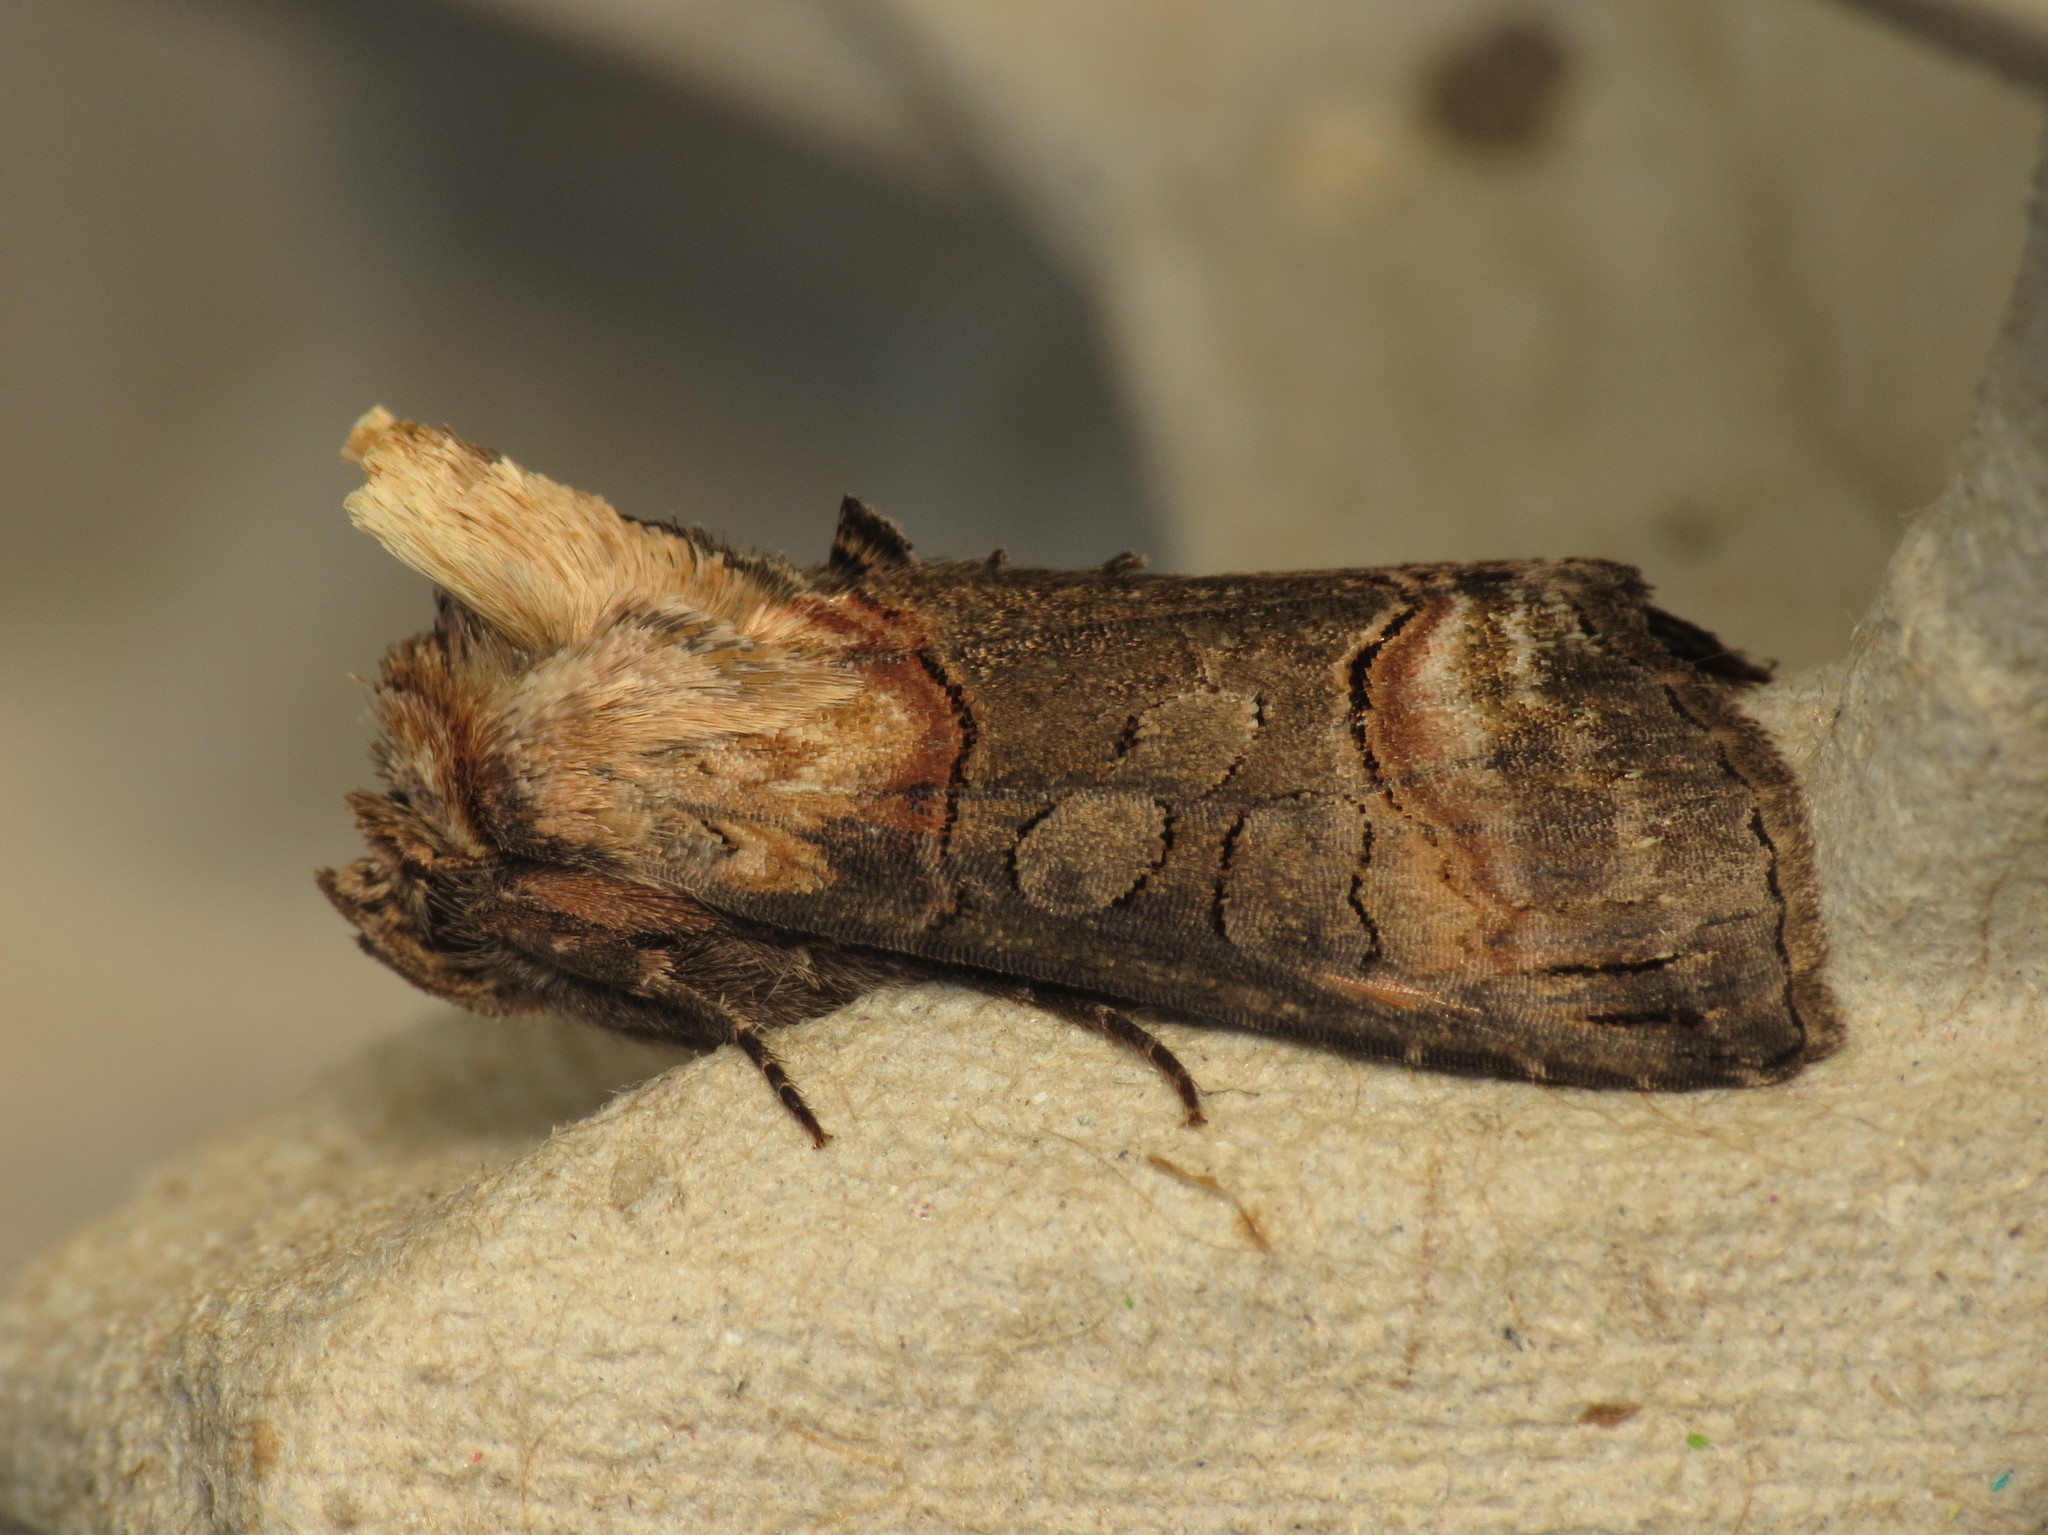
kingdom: Animalia
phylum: Arthropoda
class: Insecta
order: Lepidoptera
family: Noctuidae
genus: Abrostola
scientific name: Abrostola triplasia
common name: Dark spectacle
